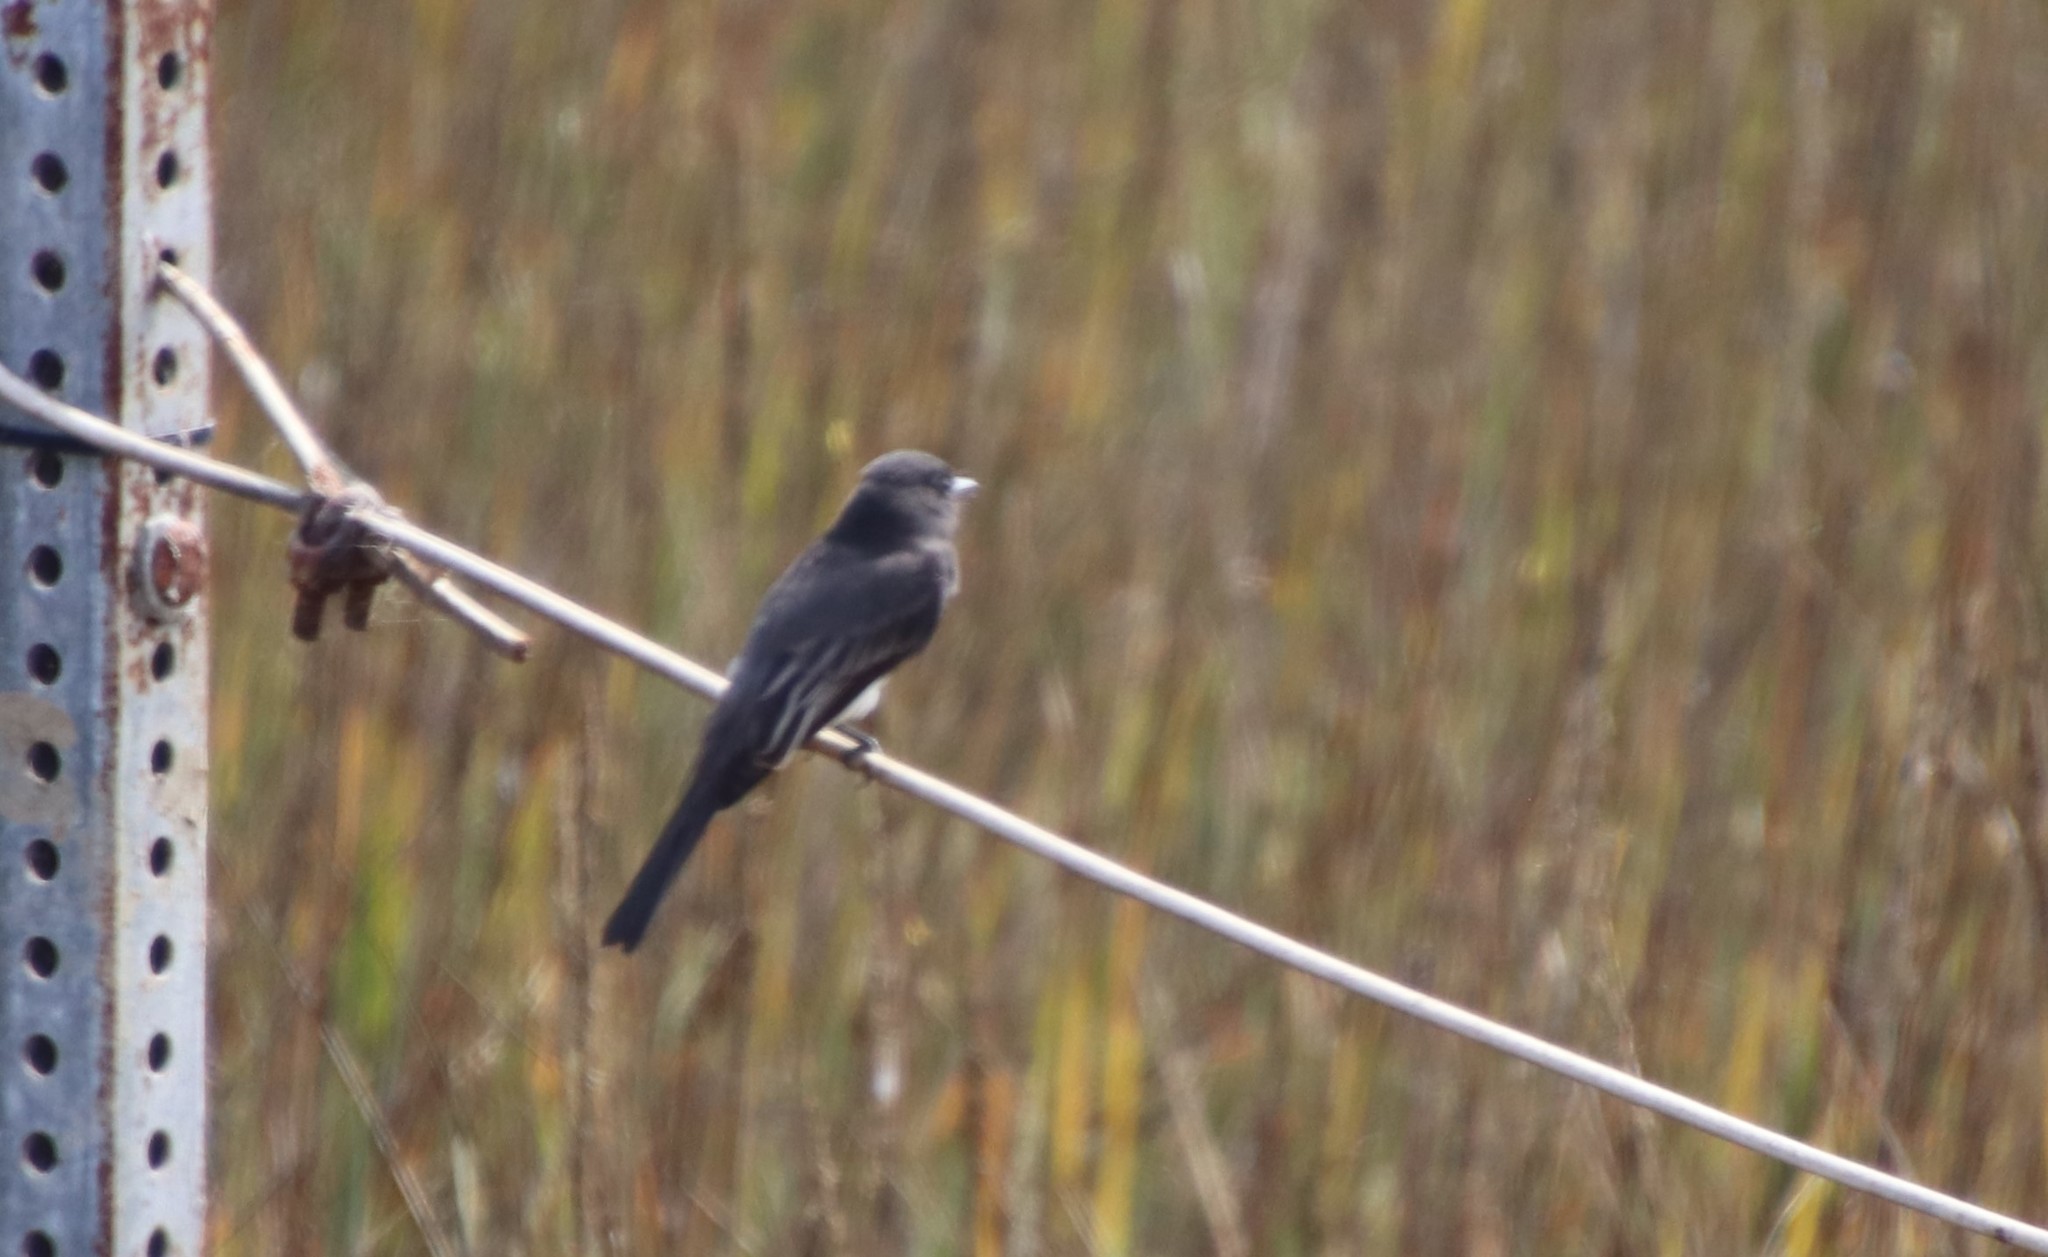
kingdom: Animalia
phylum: Chordata
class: Aves
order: Passeriformes
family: Tyrannidae
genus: Sayornis
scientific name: Sayornis nigricans
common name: Black phoebe
